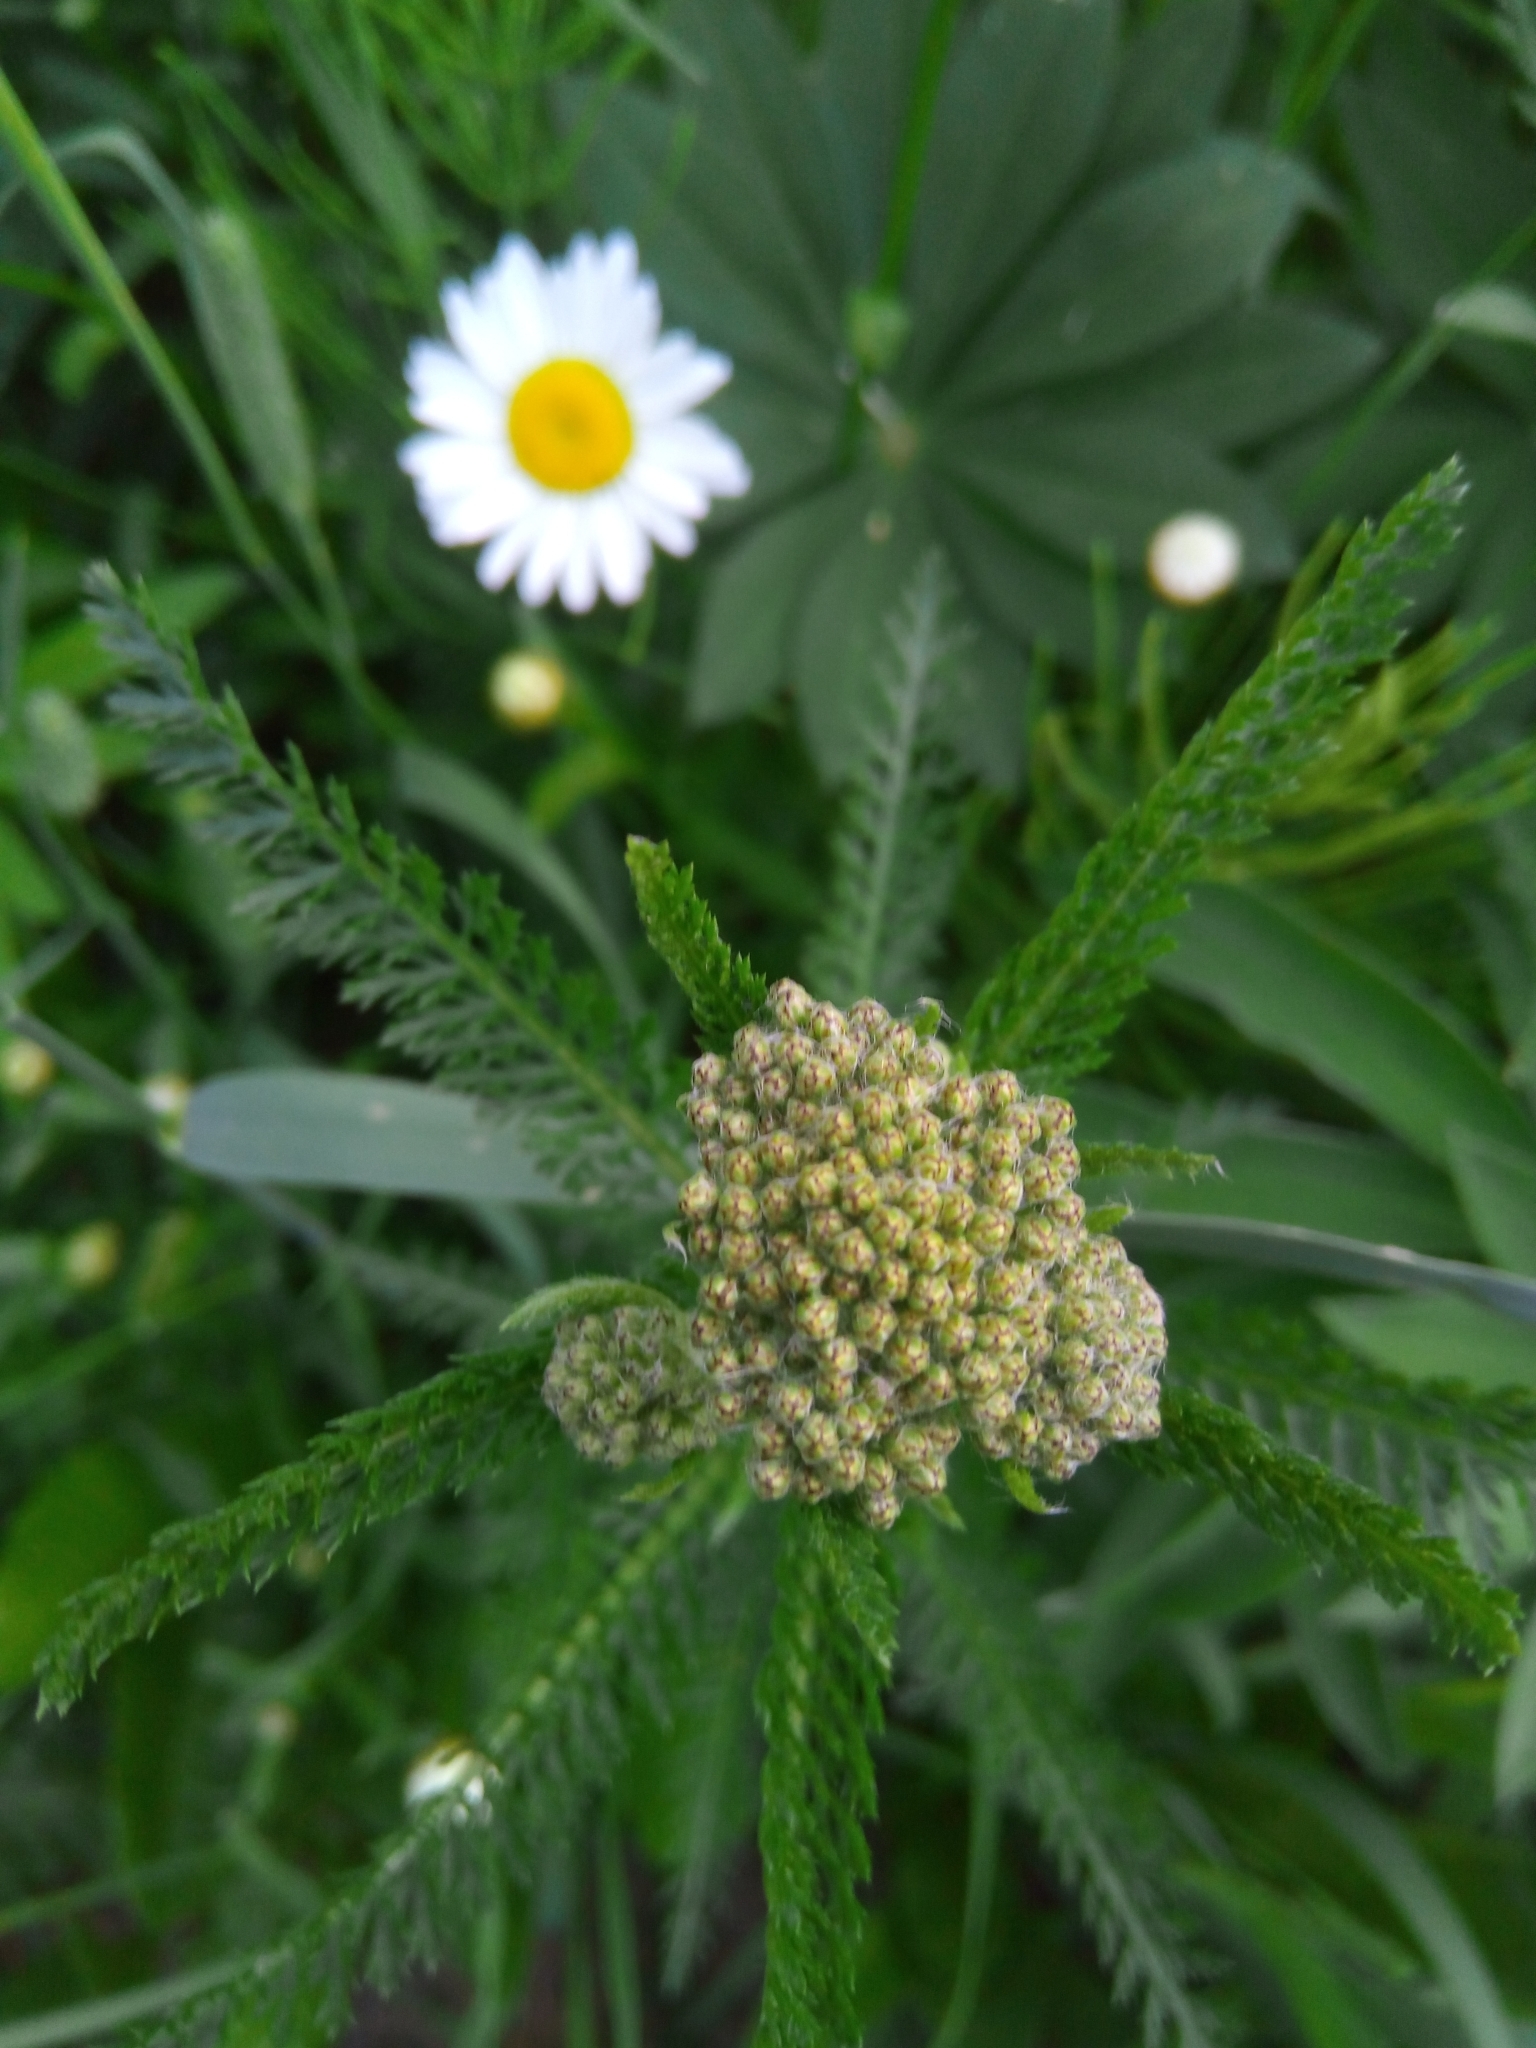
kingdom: Plantae
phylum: Tracheophyta
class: Magnoliopsida
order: Asterales
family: Asteraceae
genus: Achillea
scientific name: Achillea millefolium
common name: Yarrow
